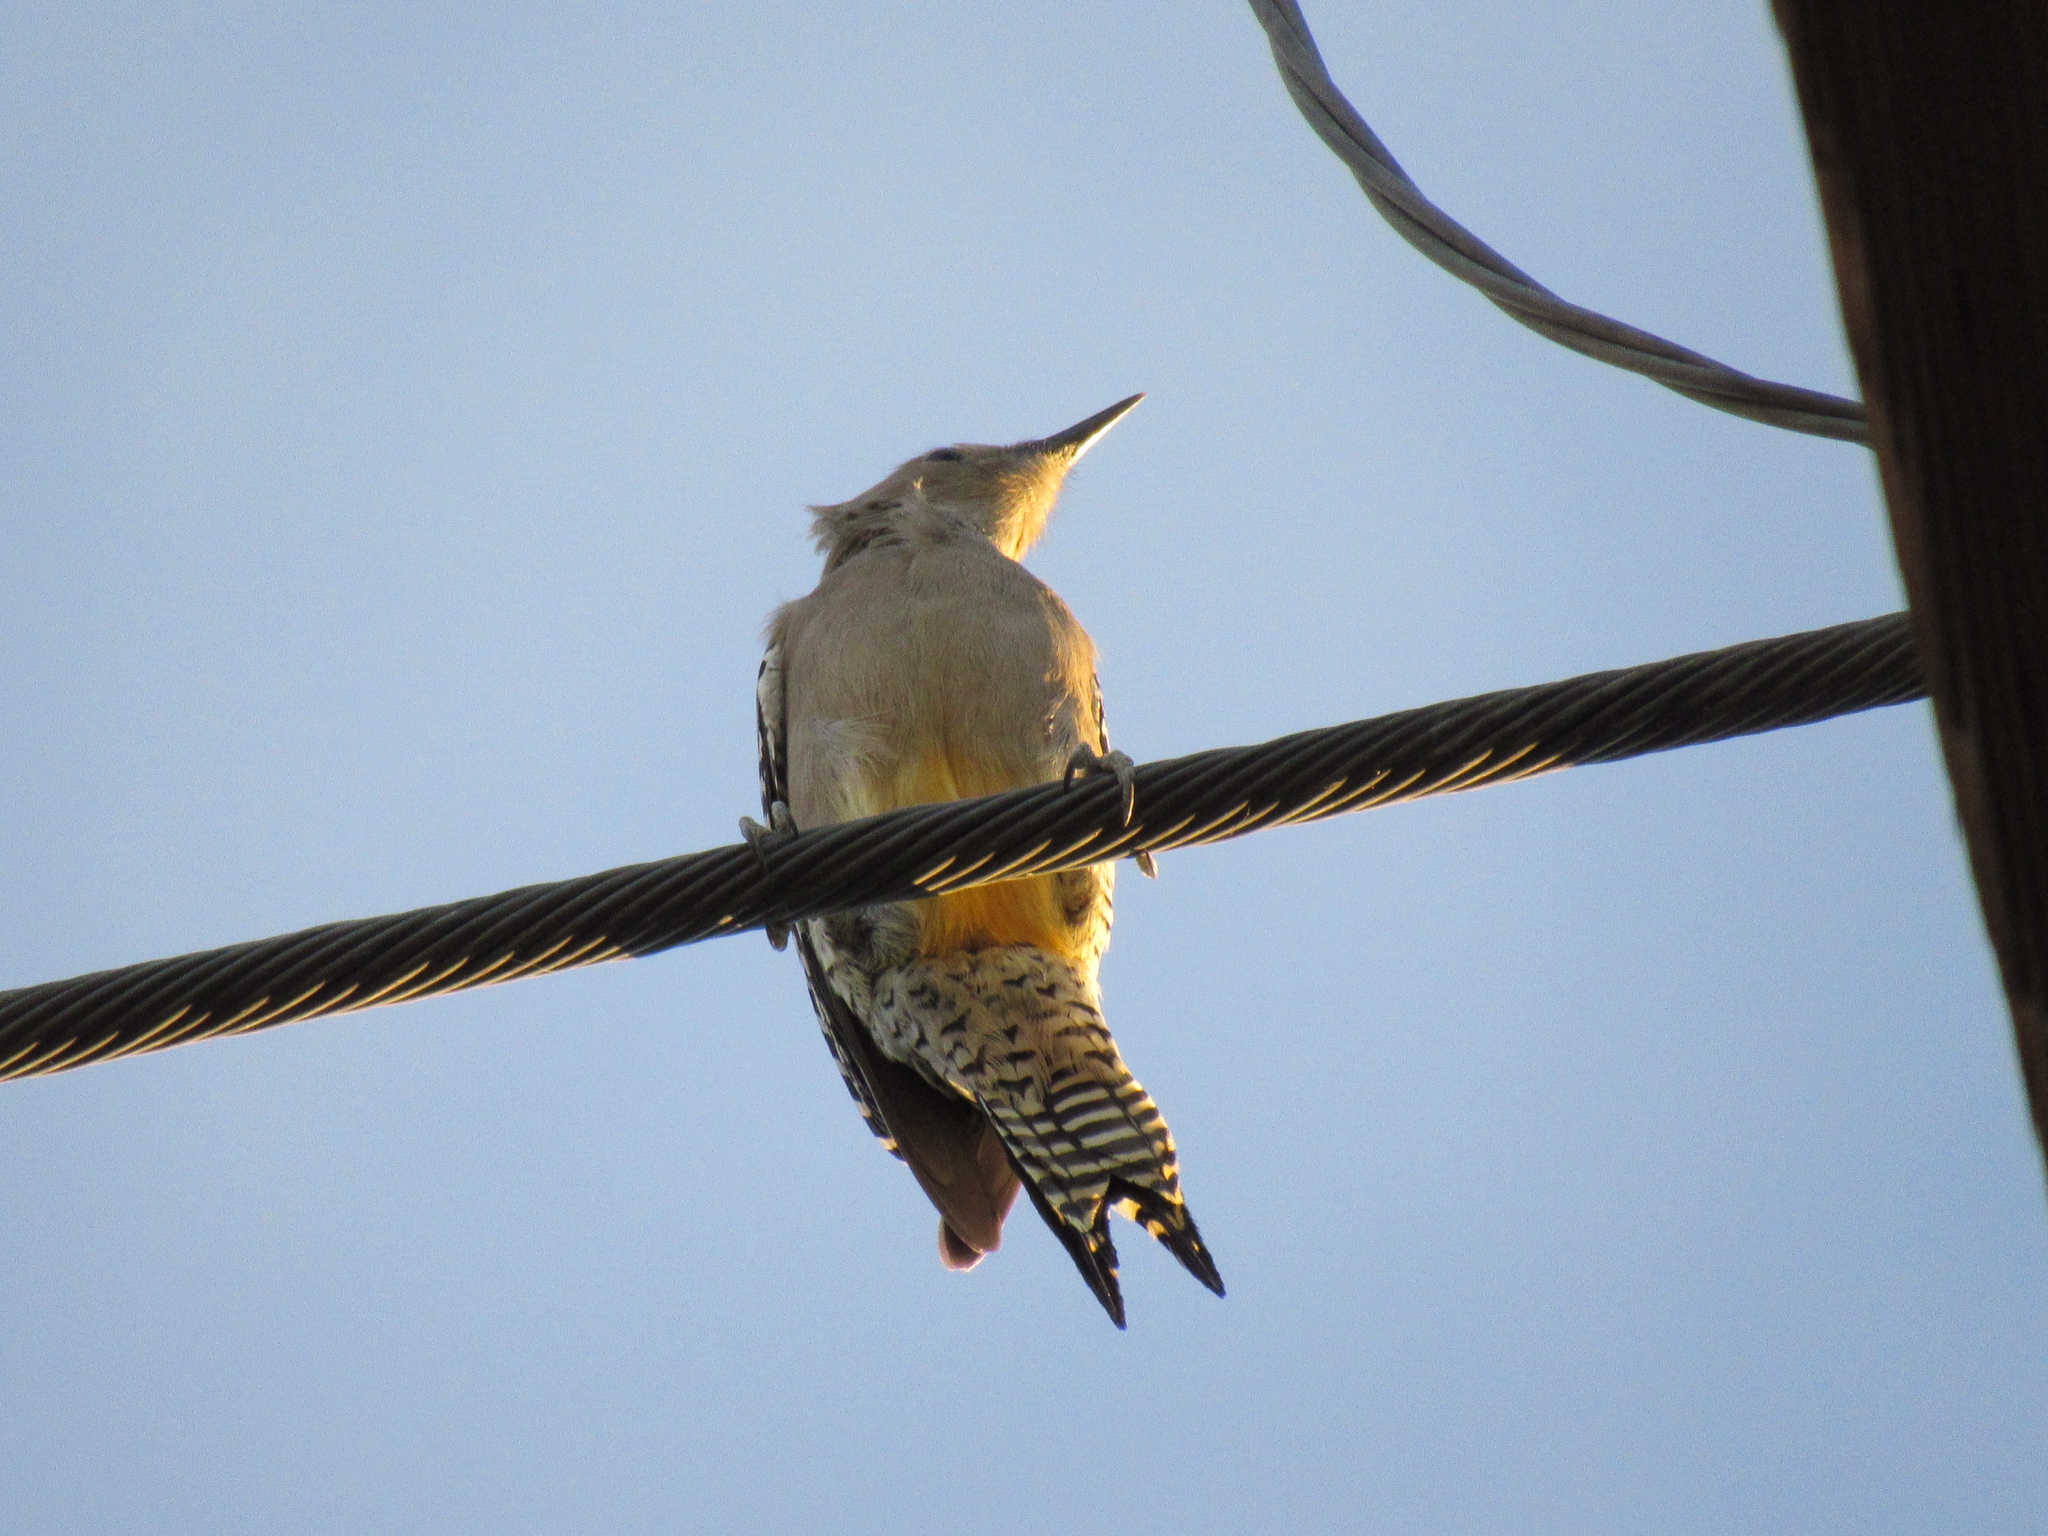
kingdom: Animalia
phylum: Chordata
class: Aves
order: Piciformes
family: Picidae
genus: Melanerpes
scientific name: Melanerpes uropygialis
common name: Gila woodpecker
